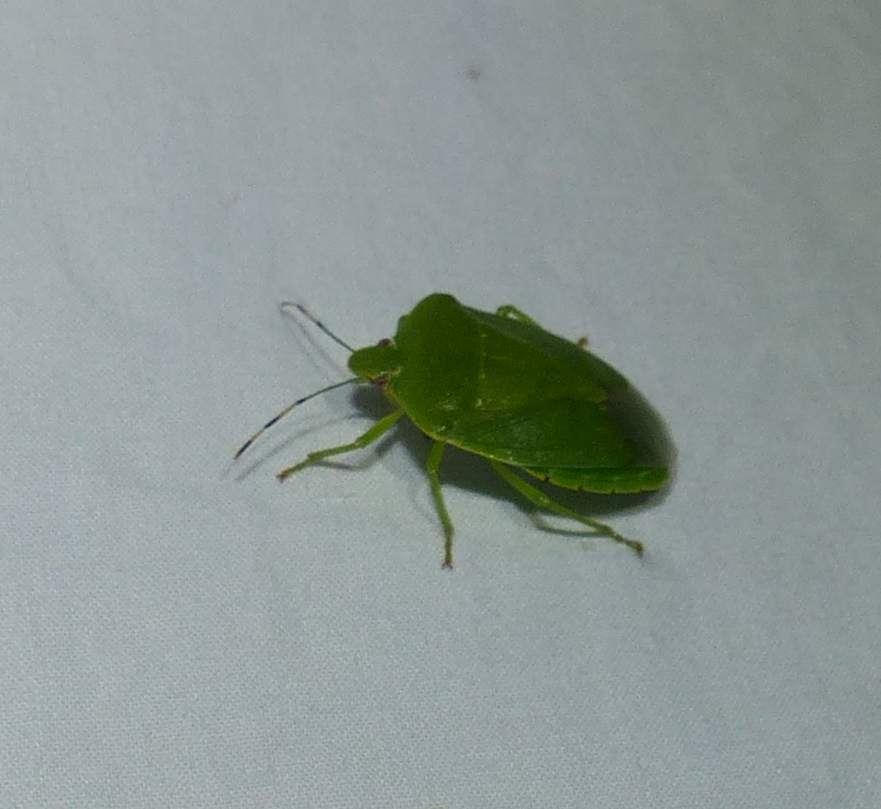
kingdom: Animalia
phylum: Arthropoda
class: Insecta
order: Hemiptera
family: Pentatomidae
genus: Chinavia
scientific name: Chinavia hilaris
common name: Green stink bug
